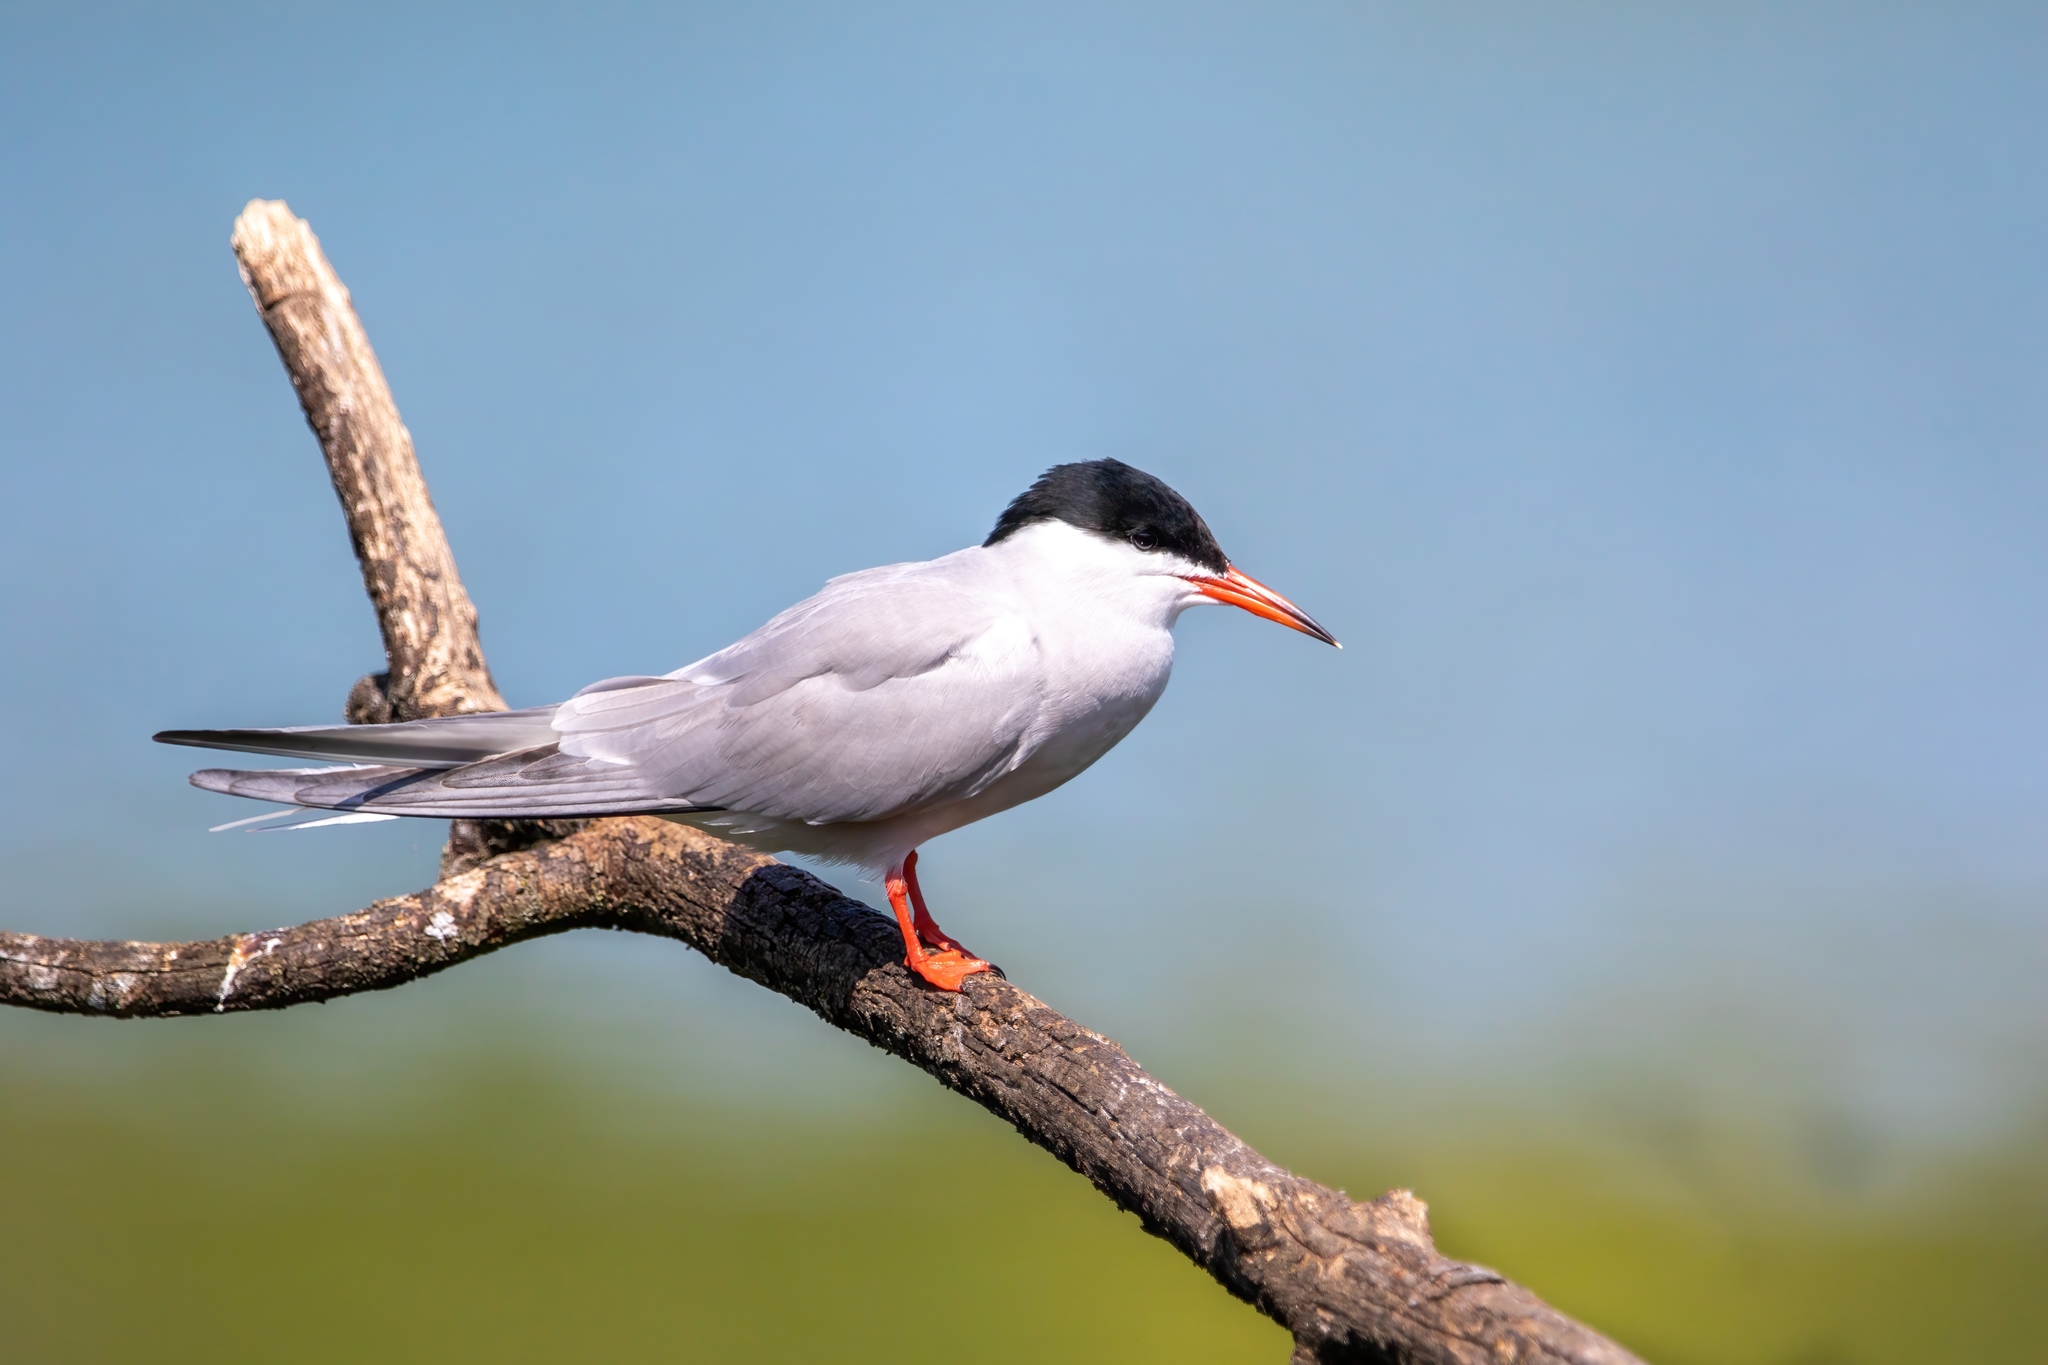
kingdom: Animalia
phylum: Chordata
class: Aves
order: Charadriiformes
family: Laridae
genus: Sterna
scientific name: Sterna hirundo
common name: Common tern
